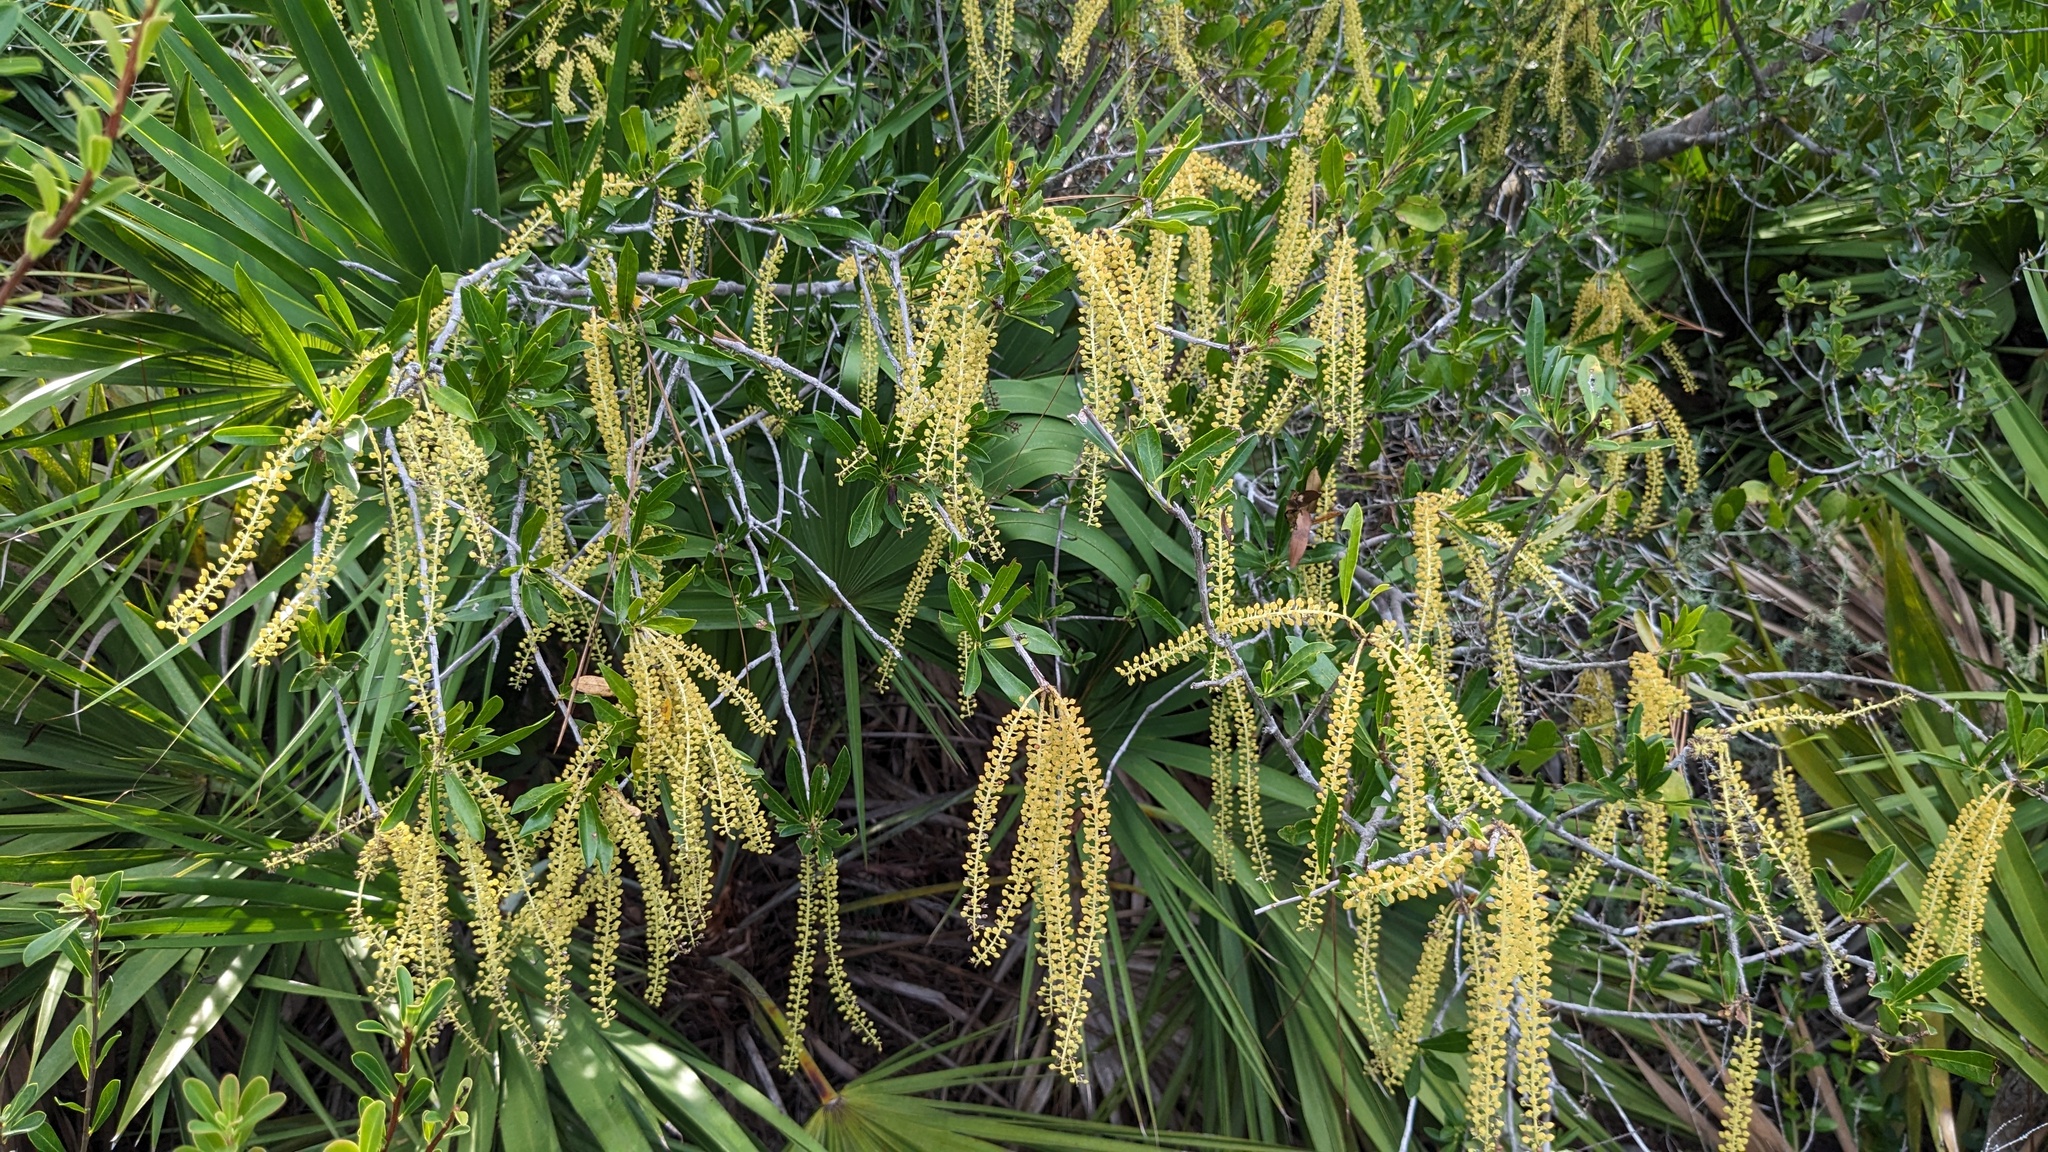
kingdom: Plantae
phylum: Tracheophyta
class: Magnoliopsida
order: Ericales
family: Cyrillaceae
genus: Cyrilla
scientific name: Cyrilla racemiflora
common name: Black titi
